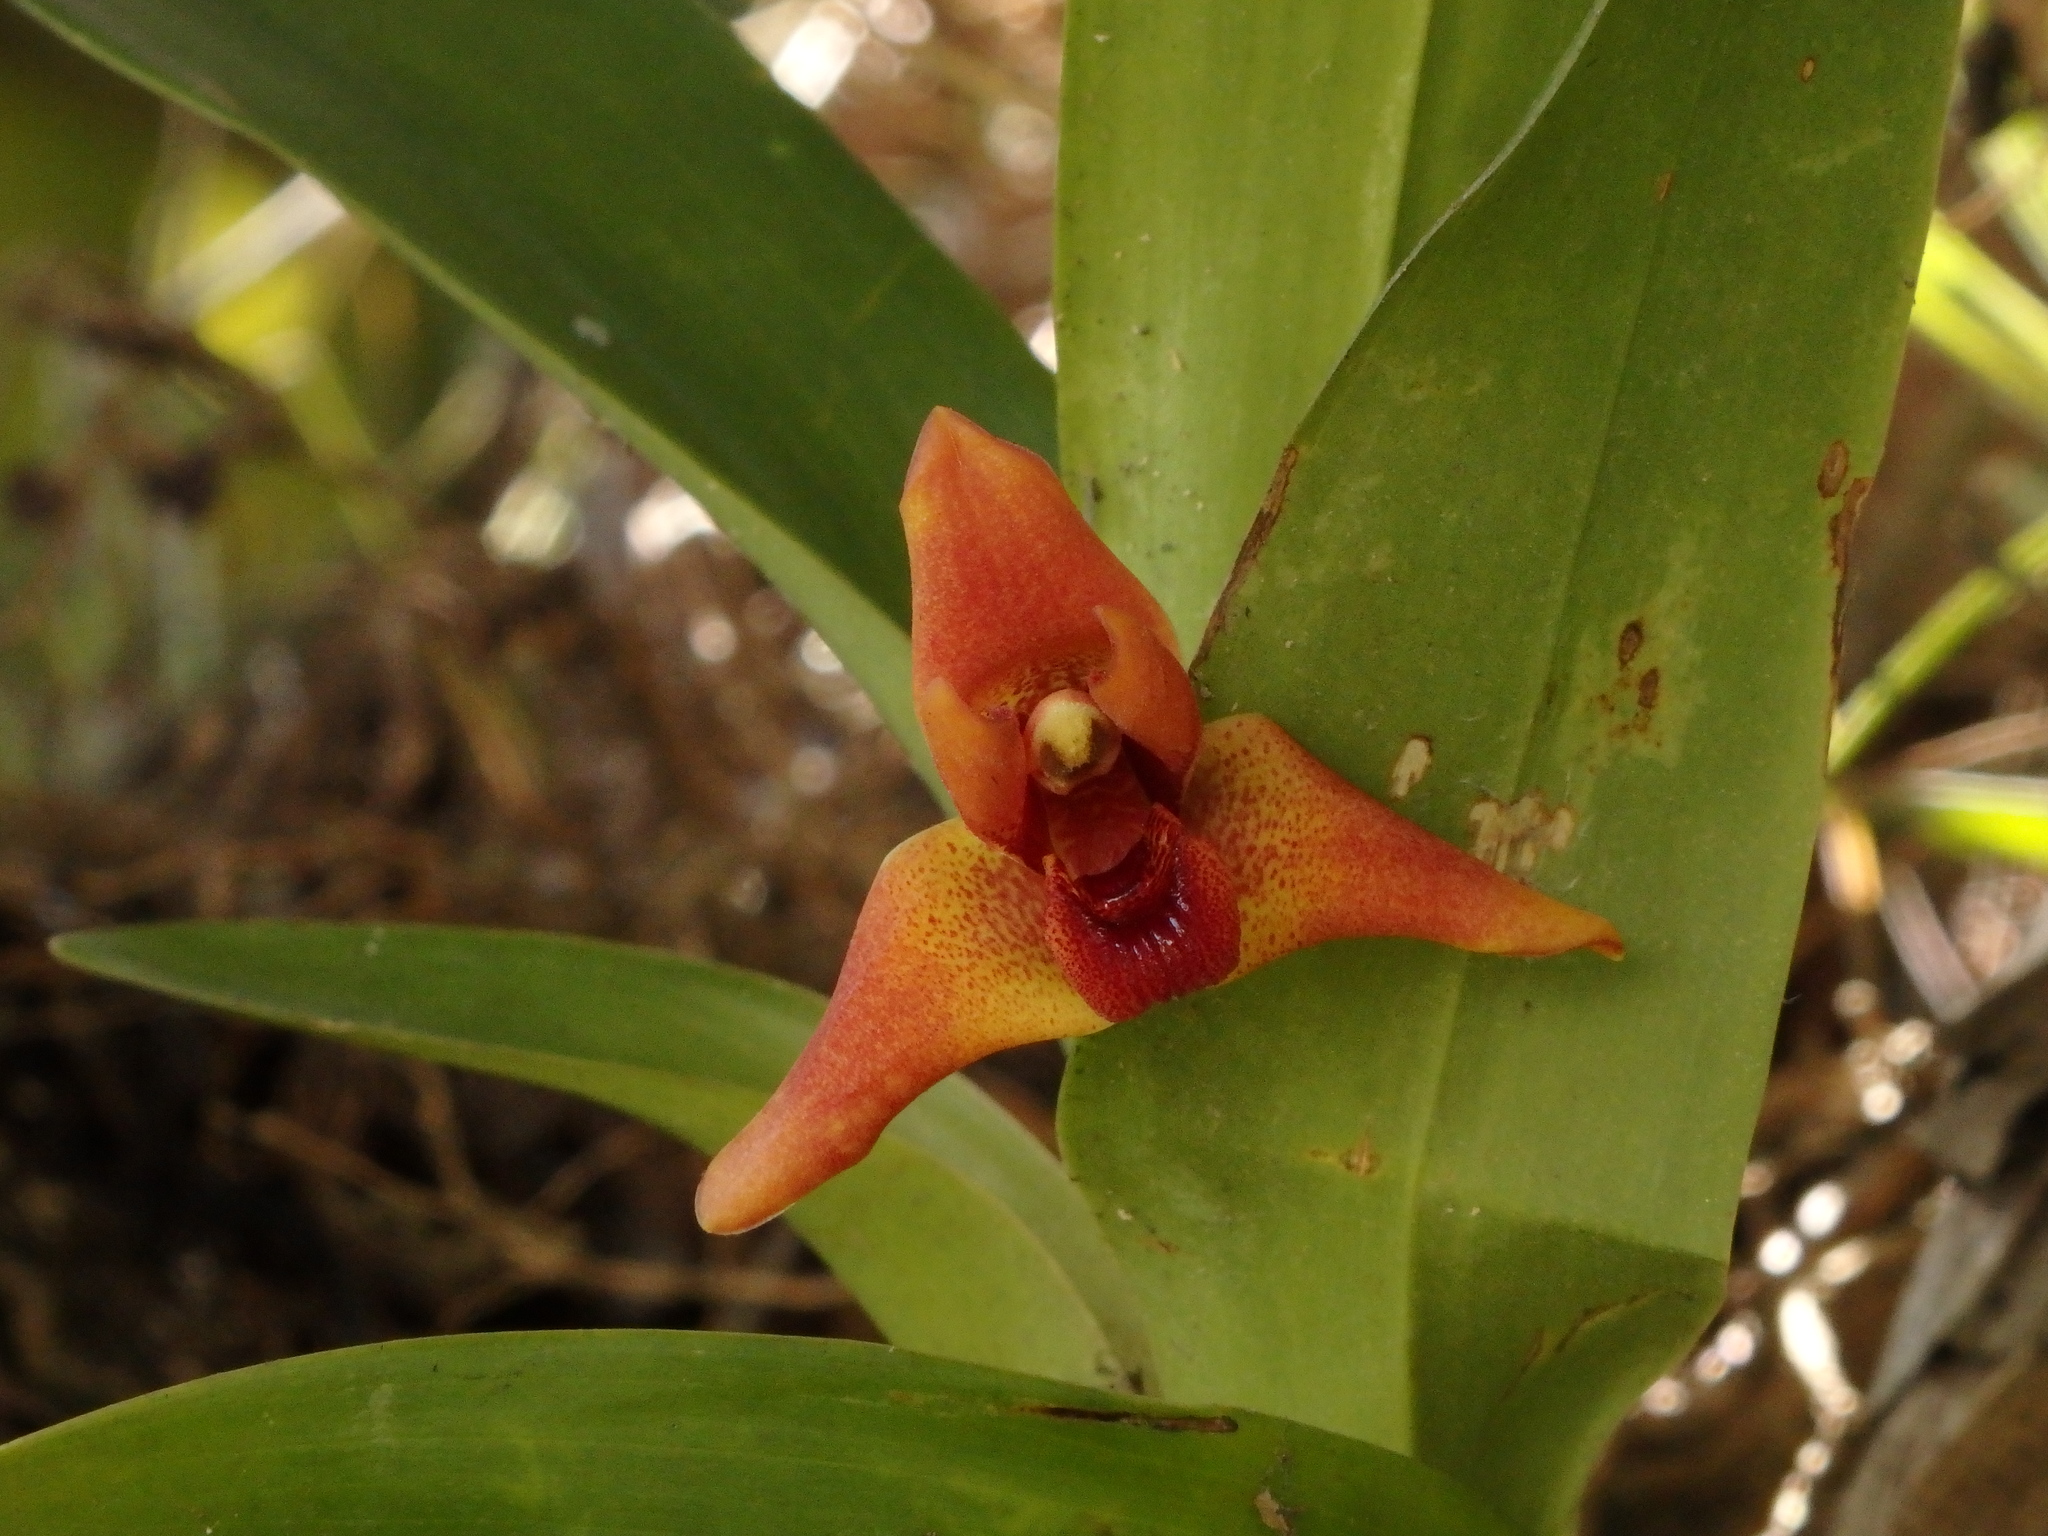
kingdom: Plantae
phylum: Tracheophyta
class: Liliopsida
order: Asparagales
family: Orchidaceae
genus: Maxillaria
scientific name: Maxillaria elatior
